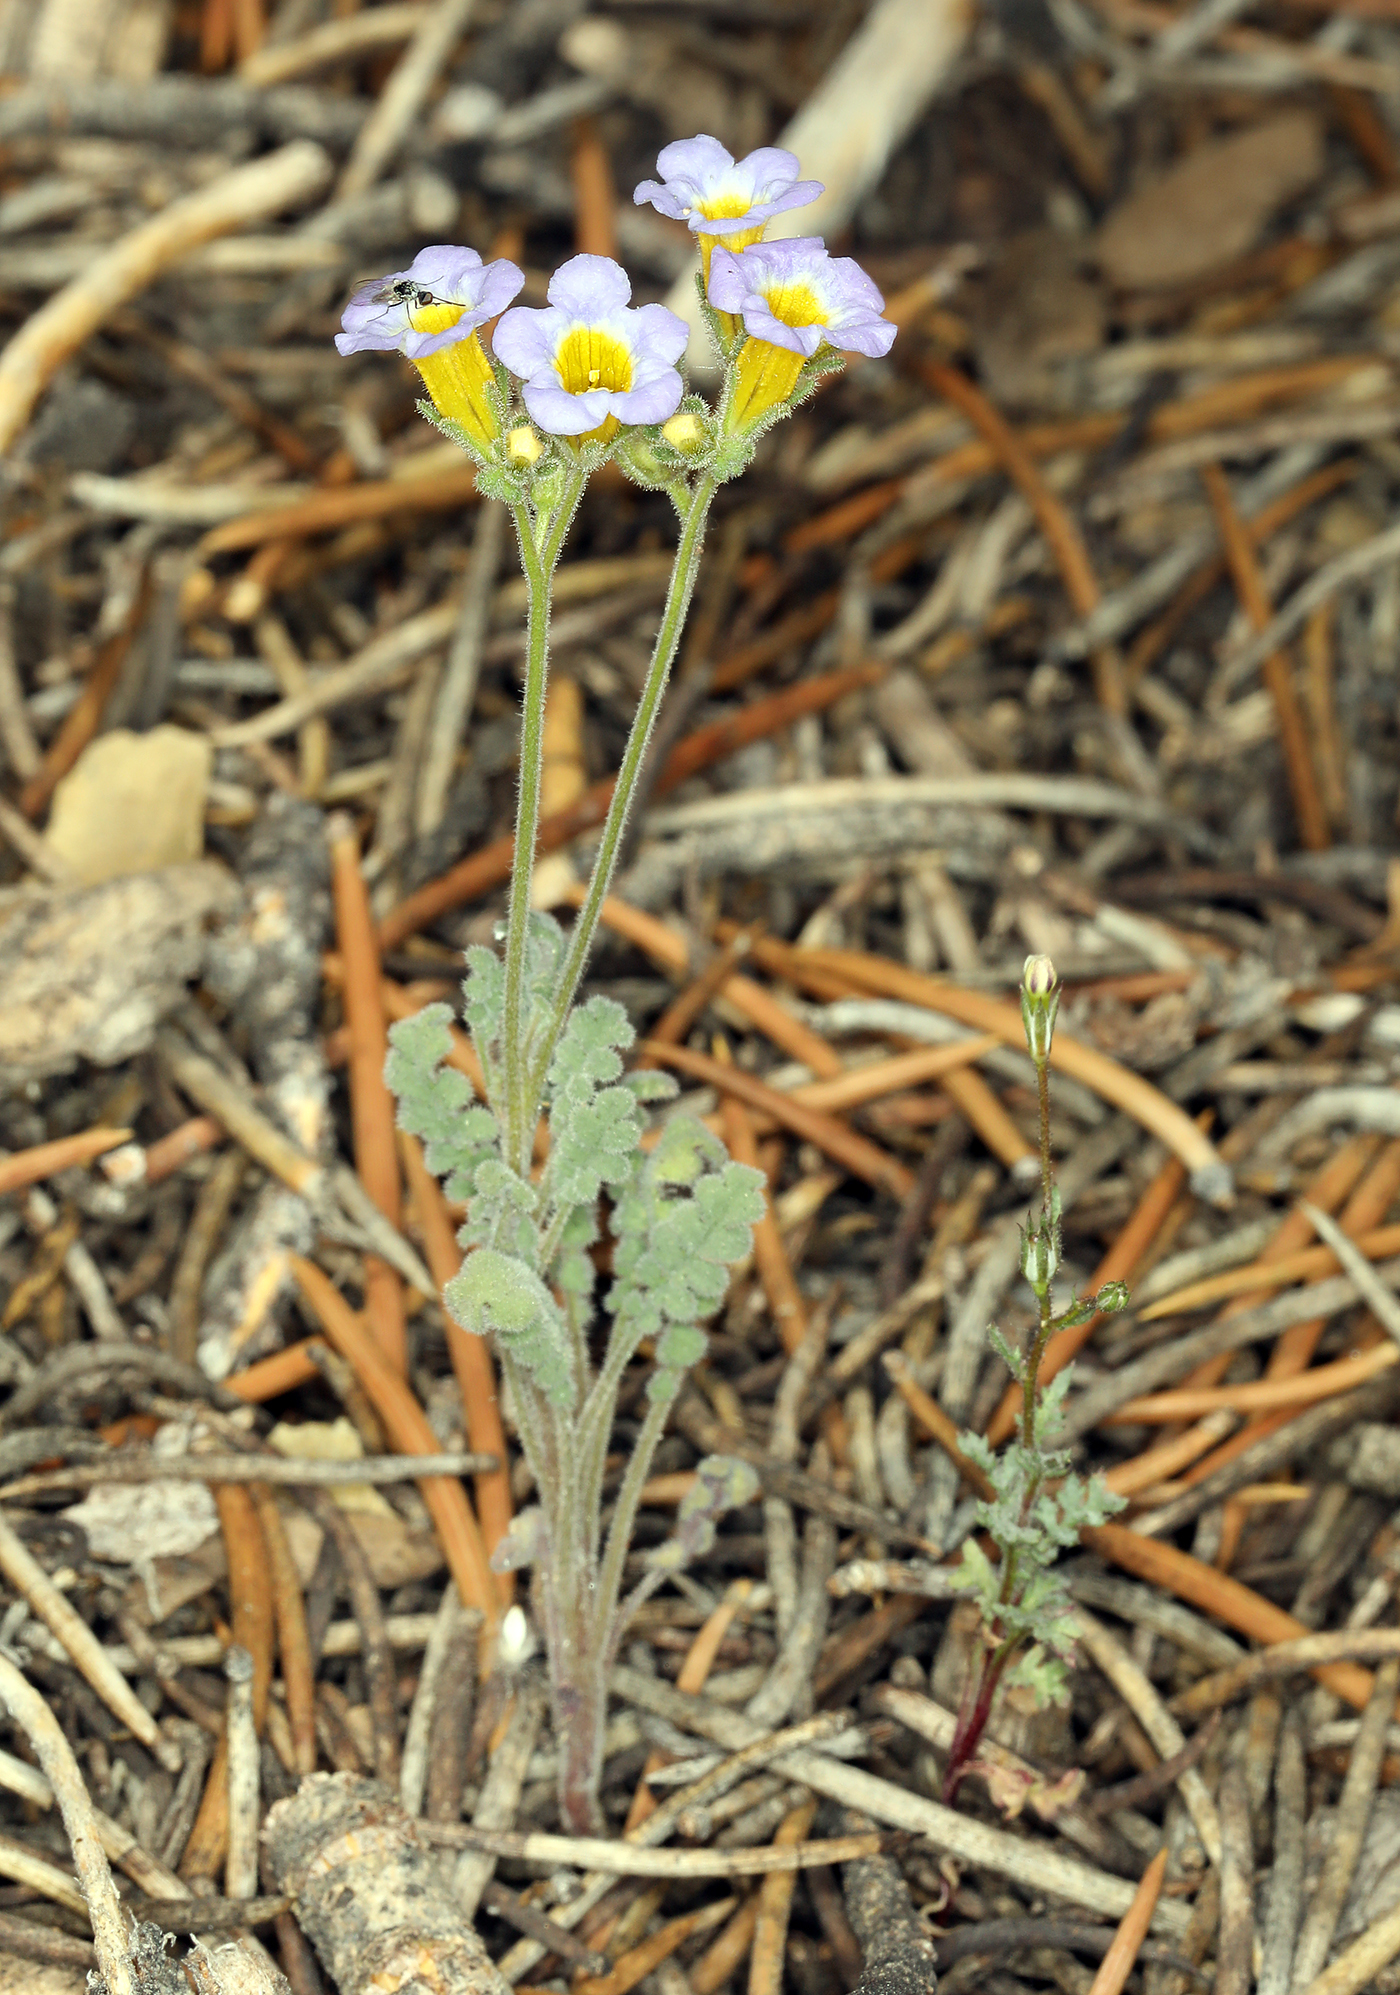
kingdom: Plantae
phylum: Tracheophyta
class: Magnoliopsida
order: Boraginales
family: Hydrophyllaceae
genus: Phacelia
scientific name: Phacelia fremontii
